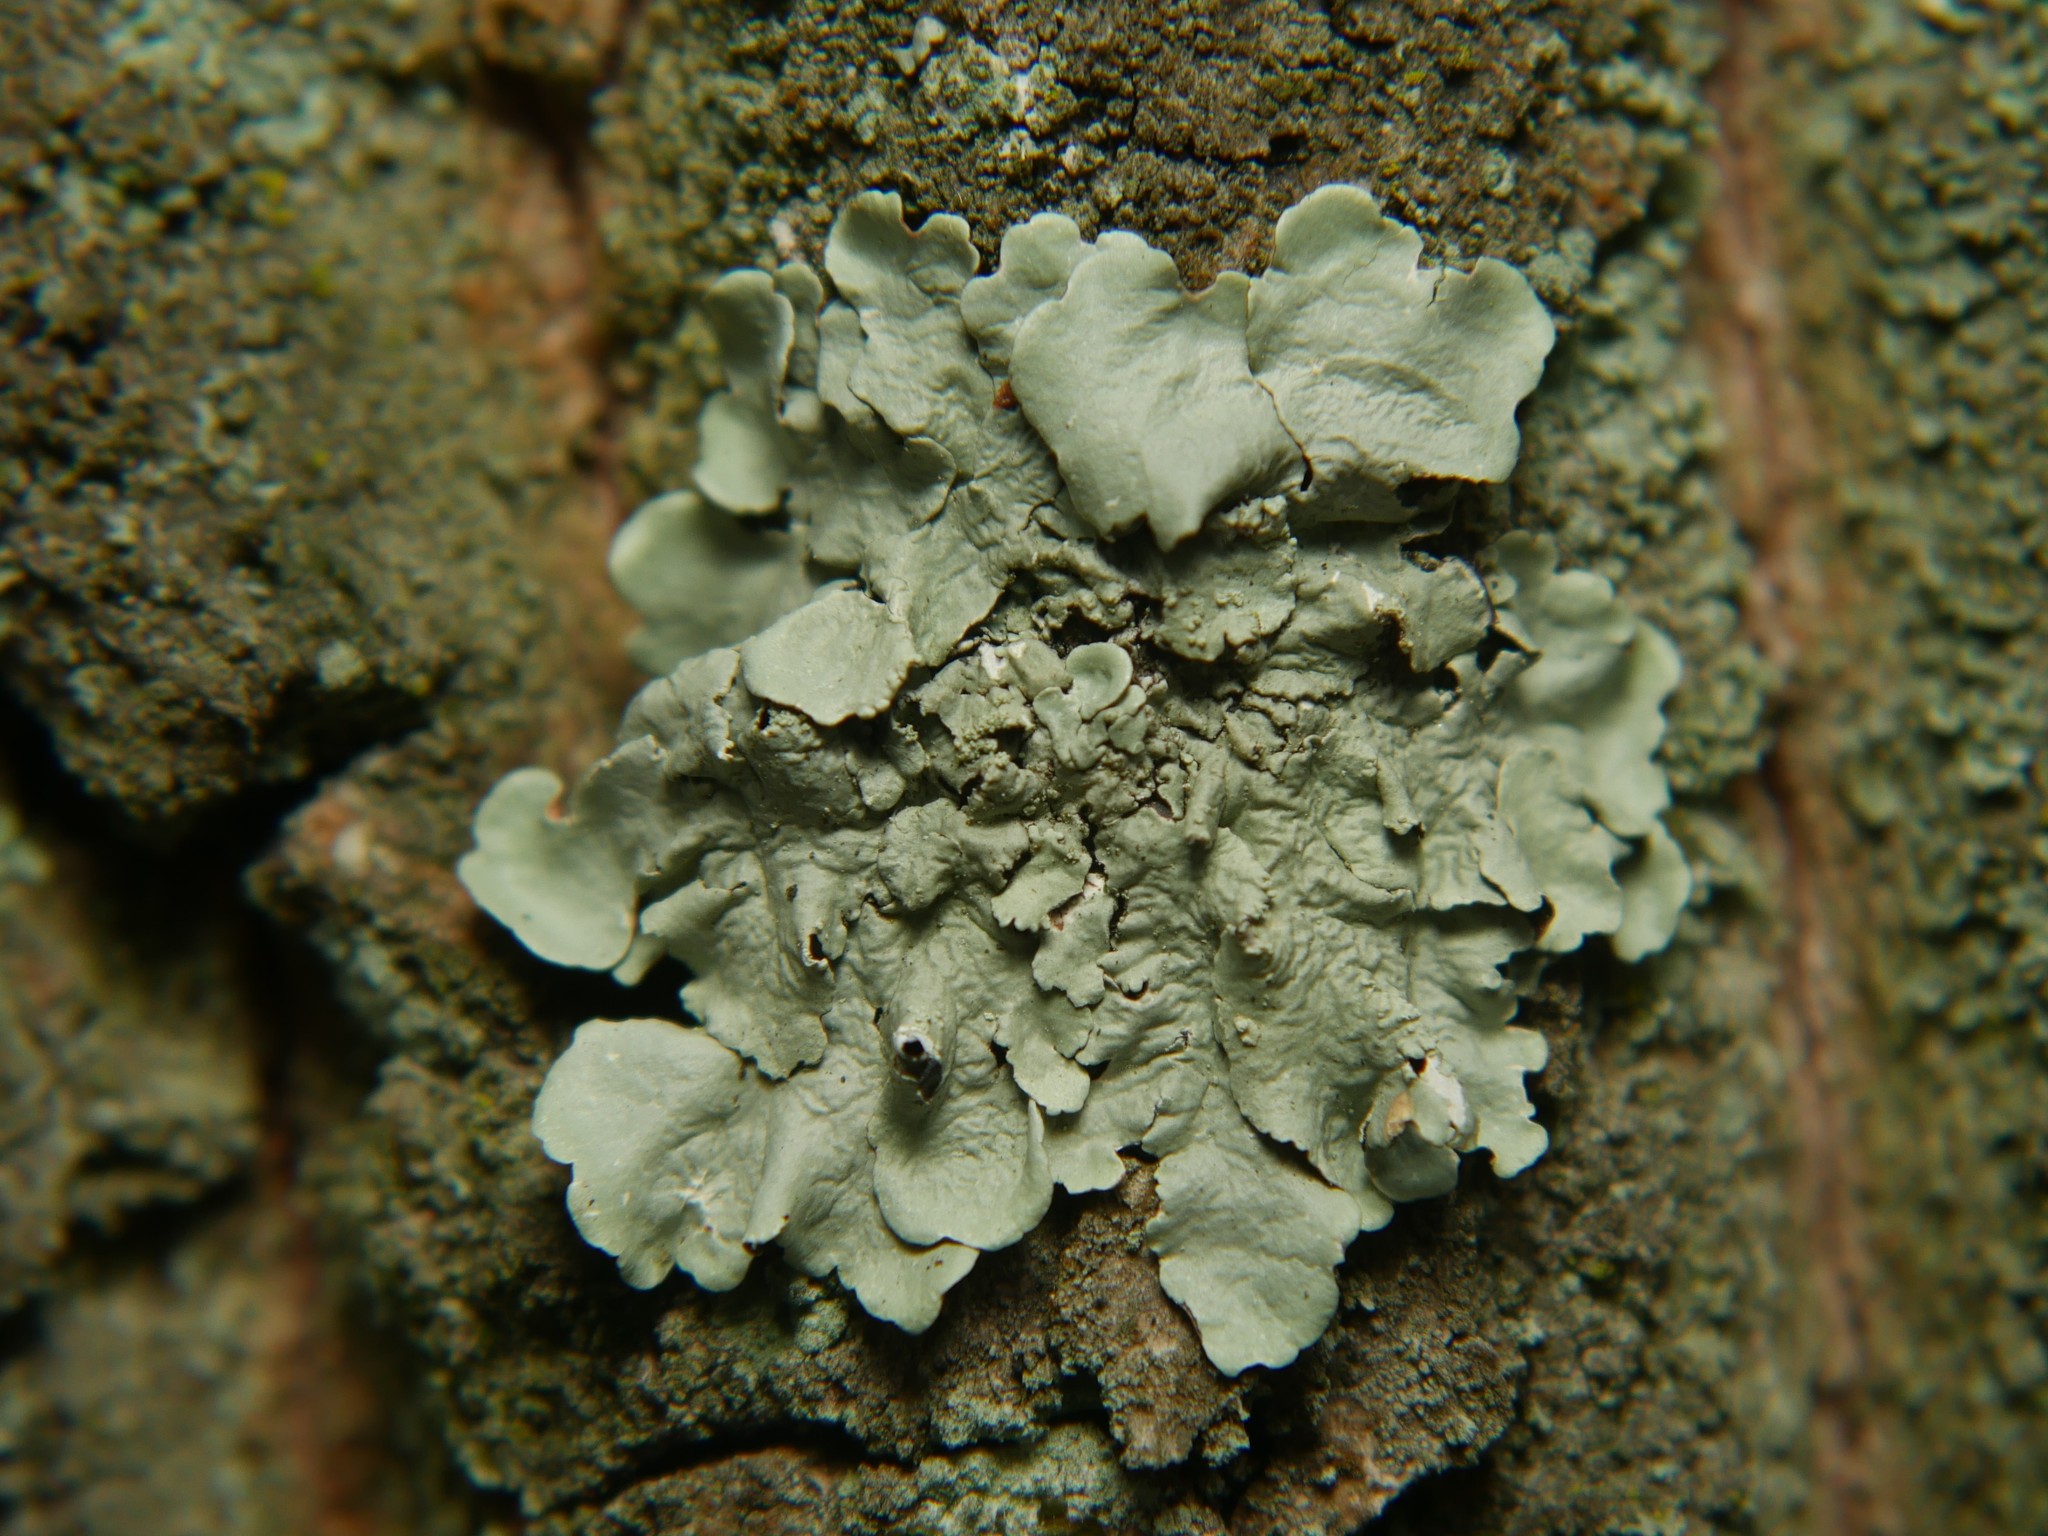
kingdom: Fungi
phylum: Ascomycota
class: Lecanoromycetes
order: Lecanorales
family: Parmeliaceae
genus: Flavoparmelia
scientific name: Flavoparmelia caperata
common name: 40-mile per hour lichen
